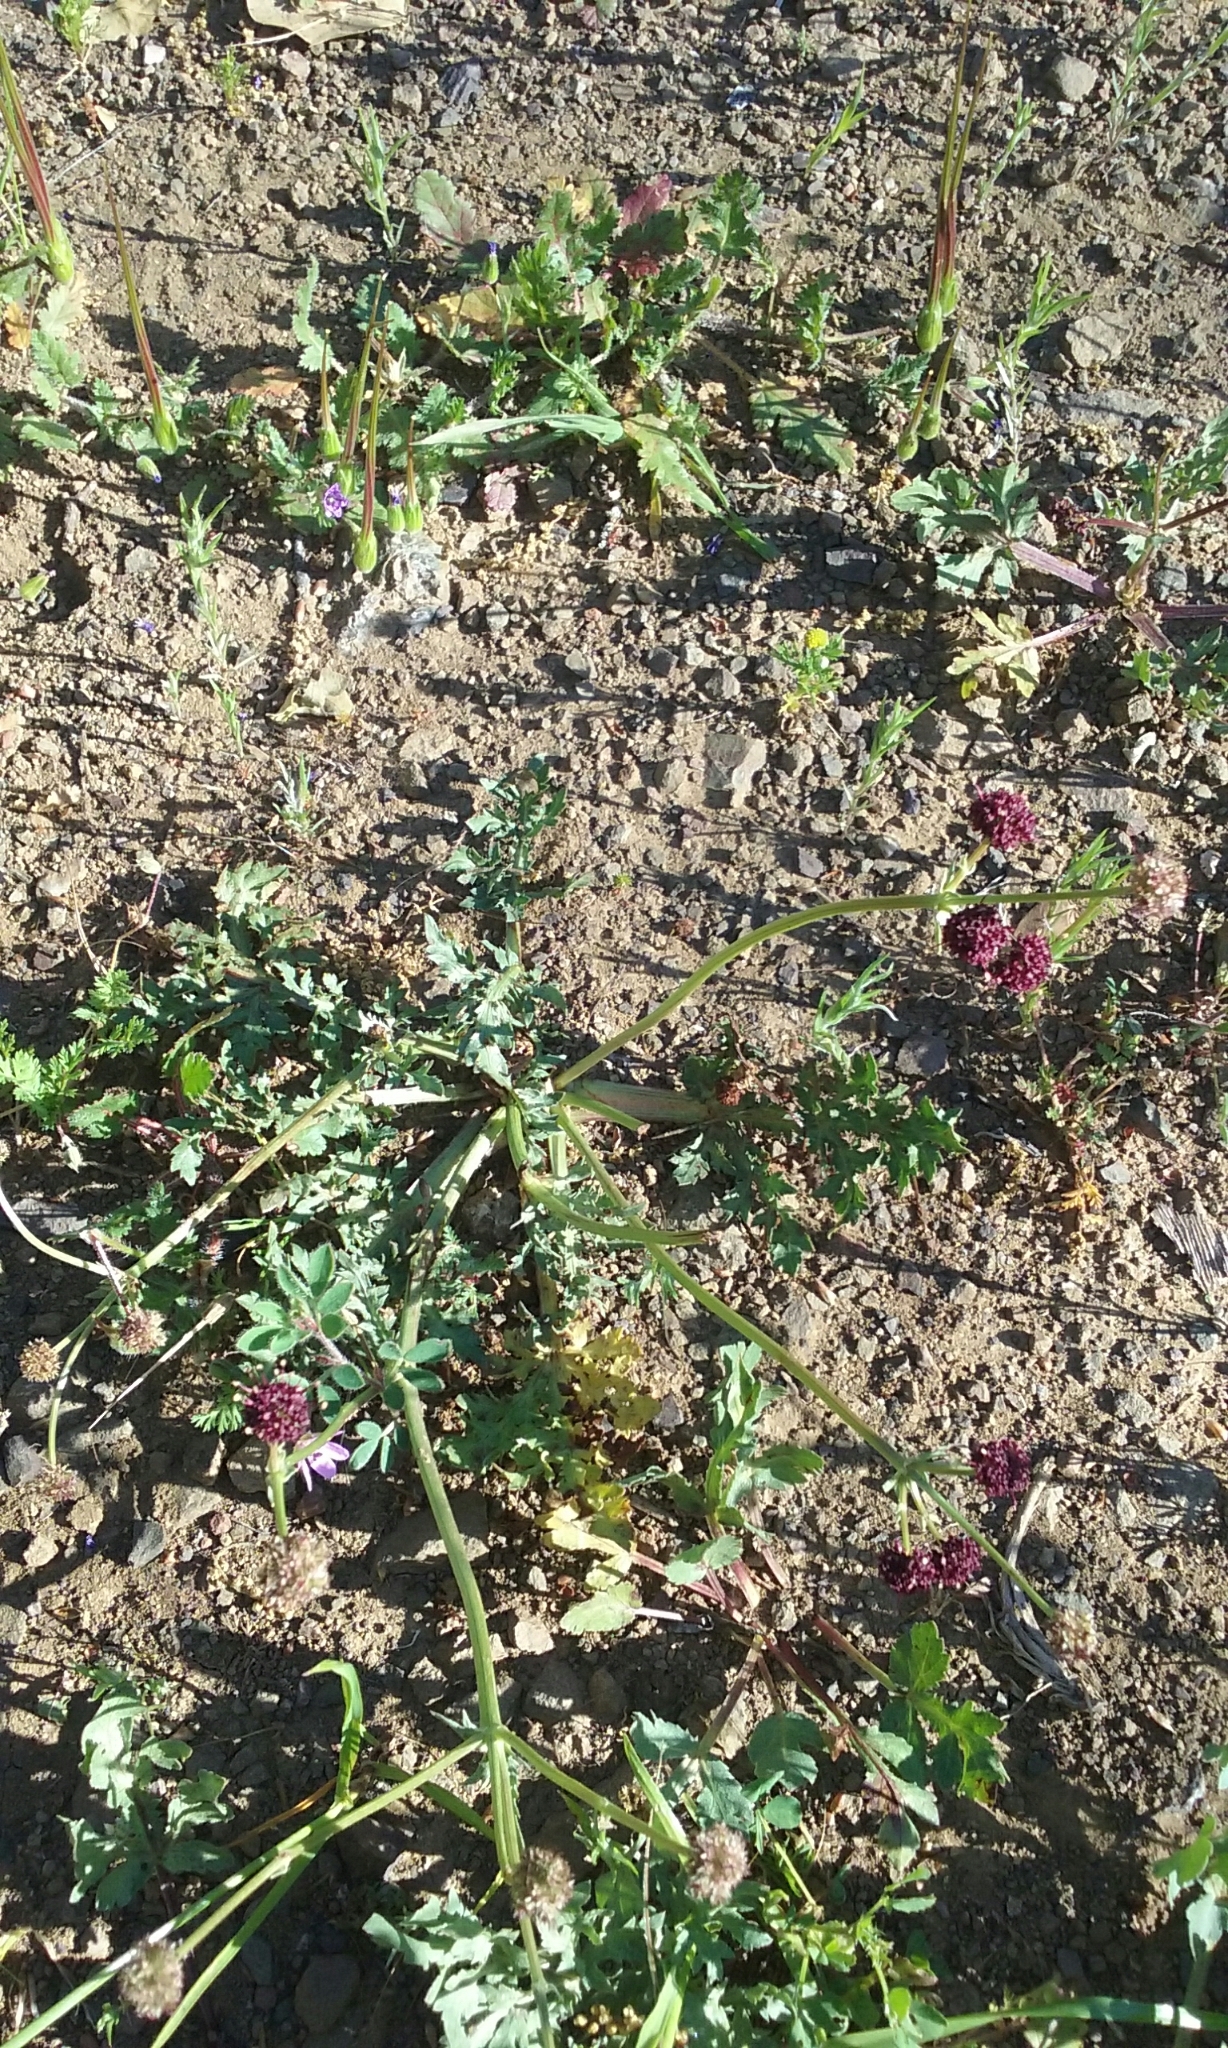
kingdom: Plantae
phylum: Tracheophyta
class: Magnoliopsida
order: Apiales
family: Apiaceae
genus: Sanicula
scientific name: Sanicula bipinnatifida
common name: Shoe-buttons
